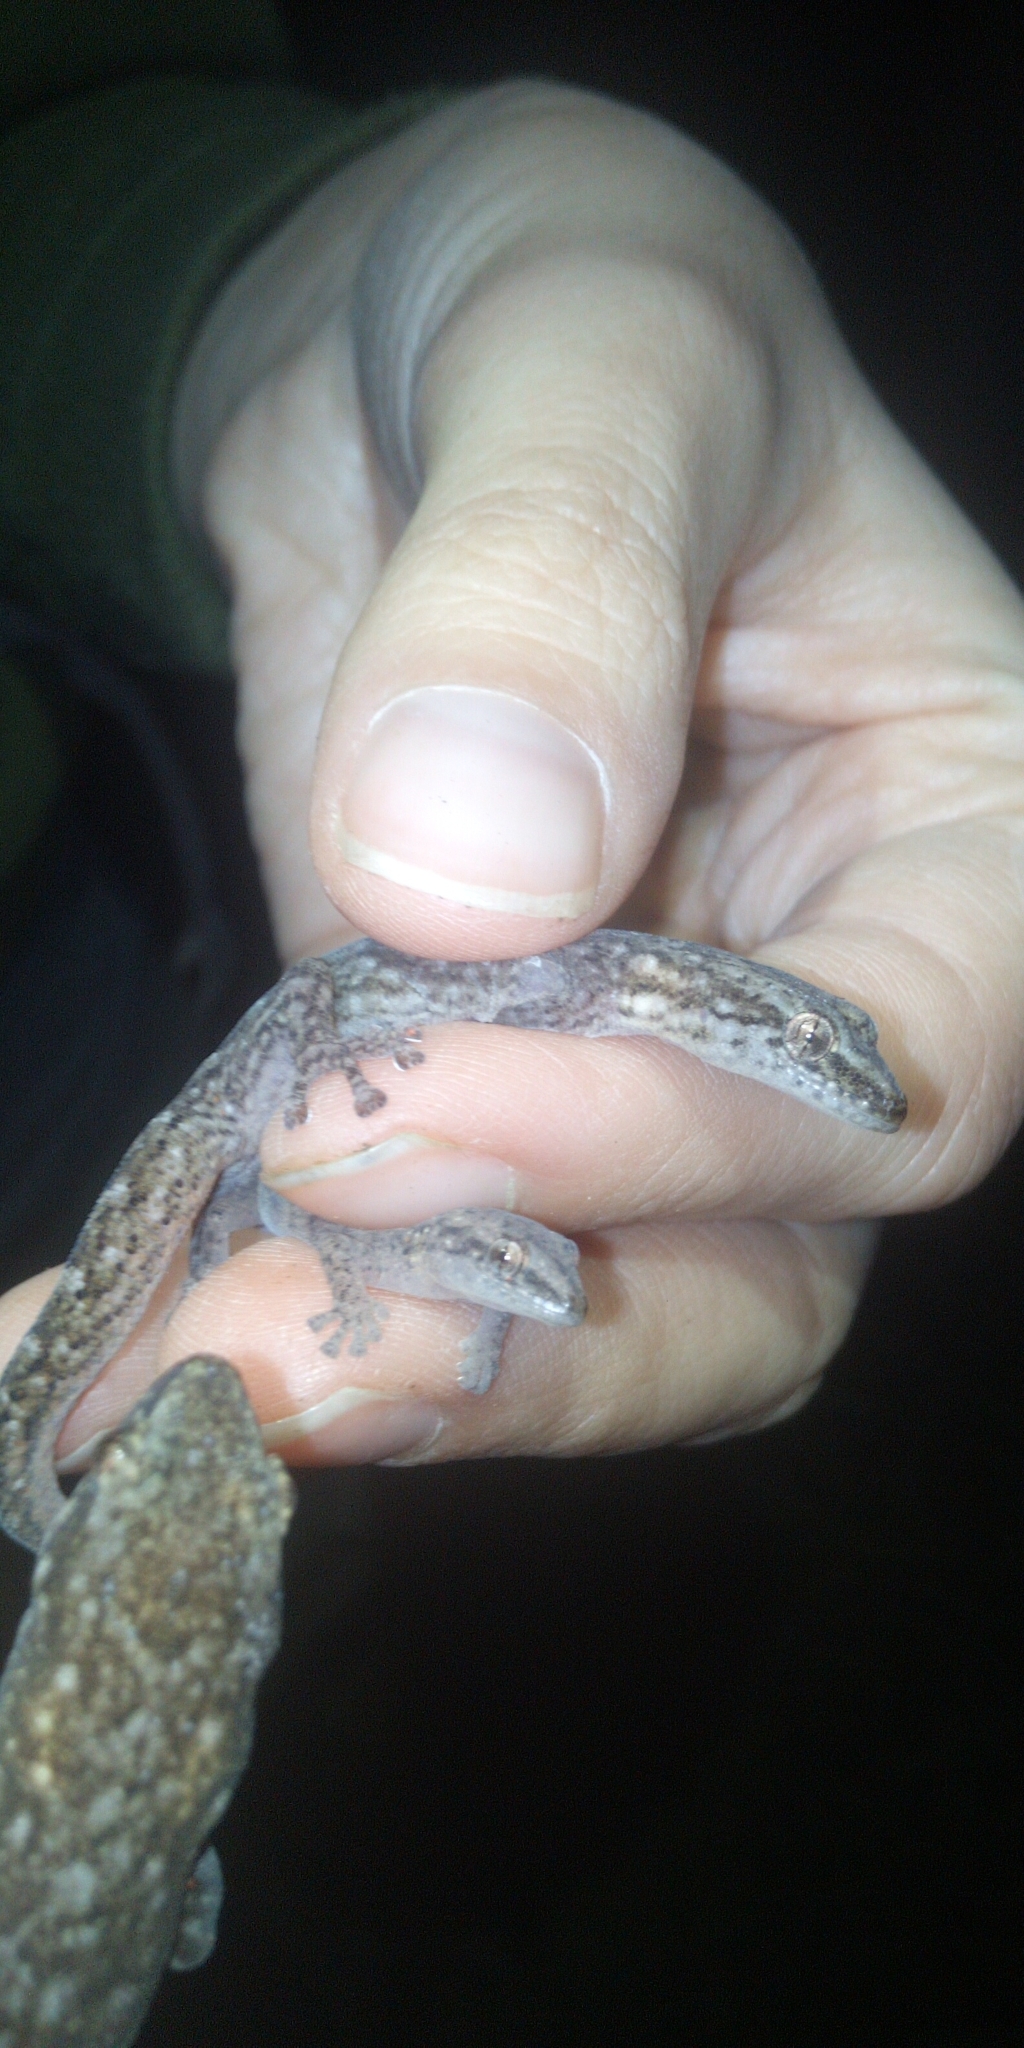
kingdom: Animalia
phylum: Chordata
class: Squamata
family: Gekkonidae
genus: Afrogecko
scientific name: Afrogecko porphyreus
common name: Marbled leaf-toed gecko
